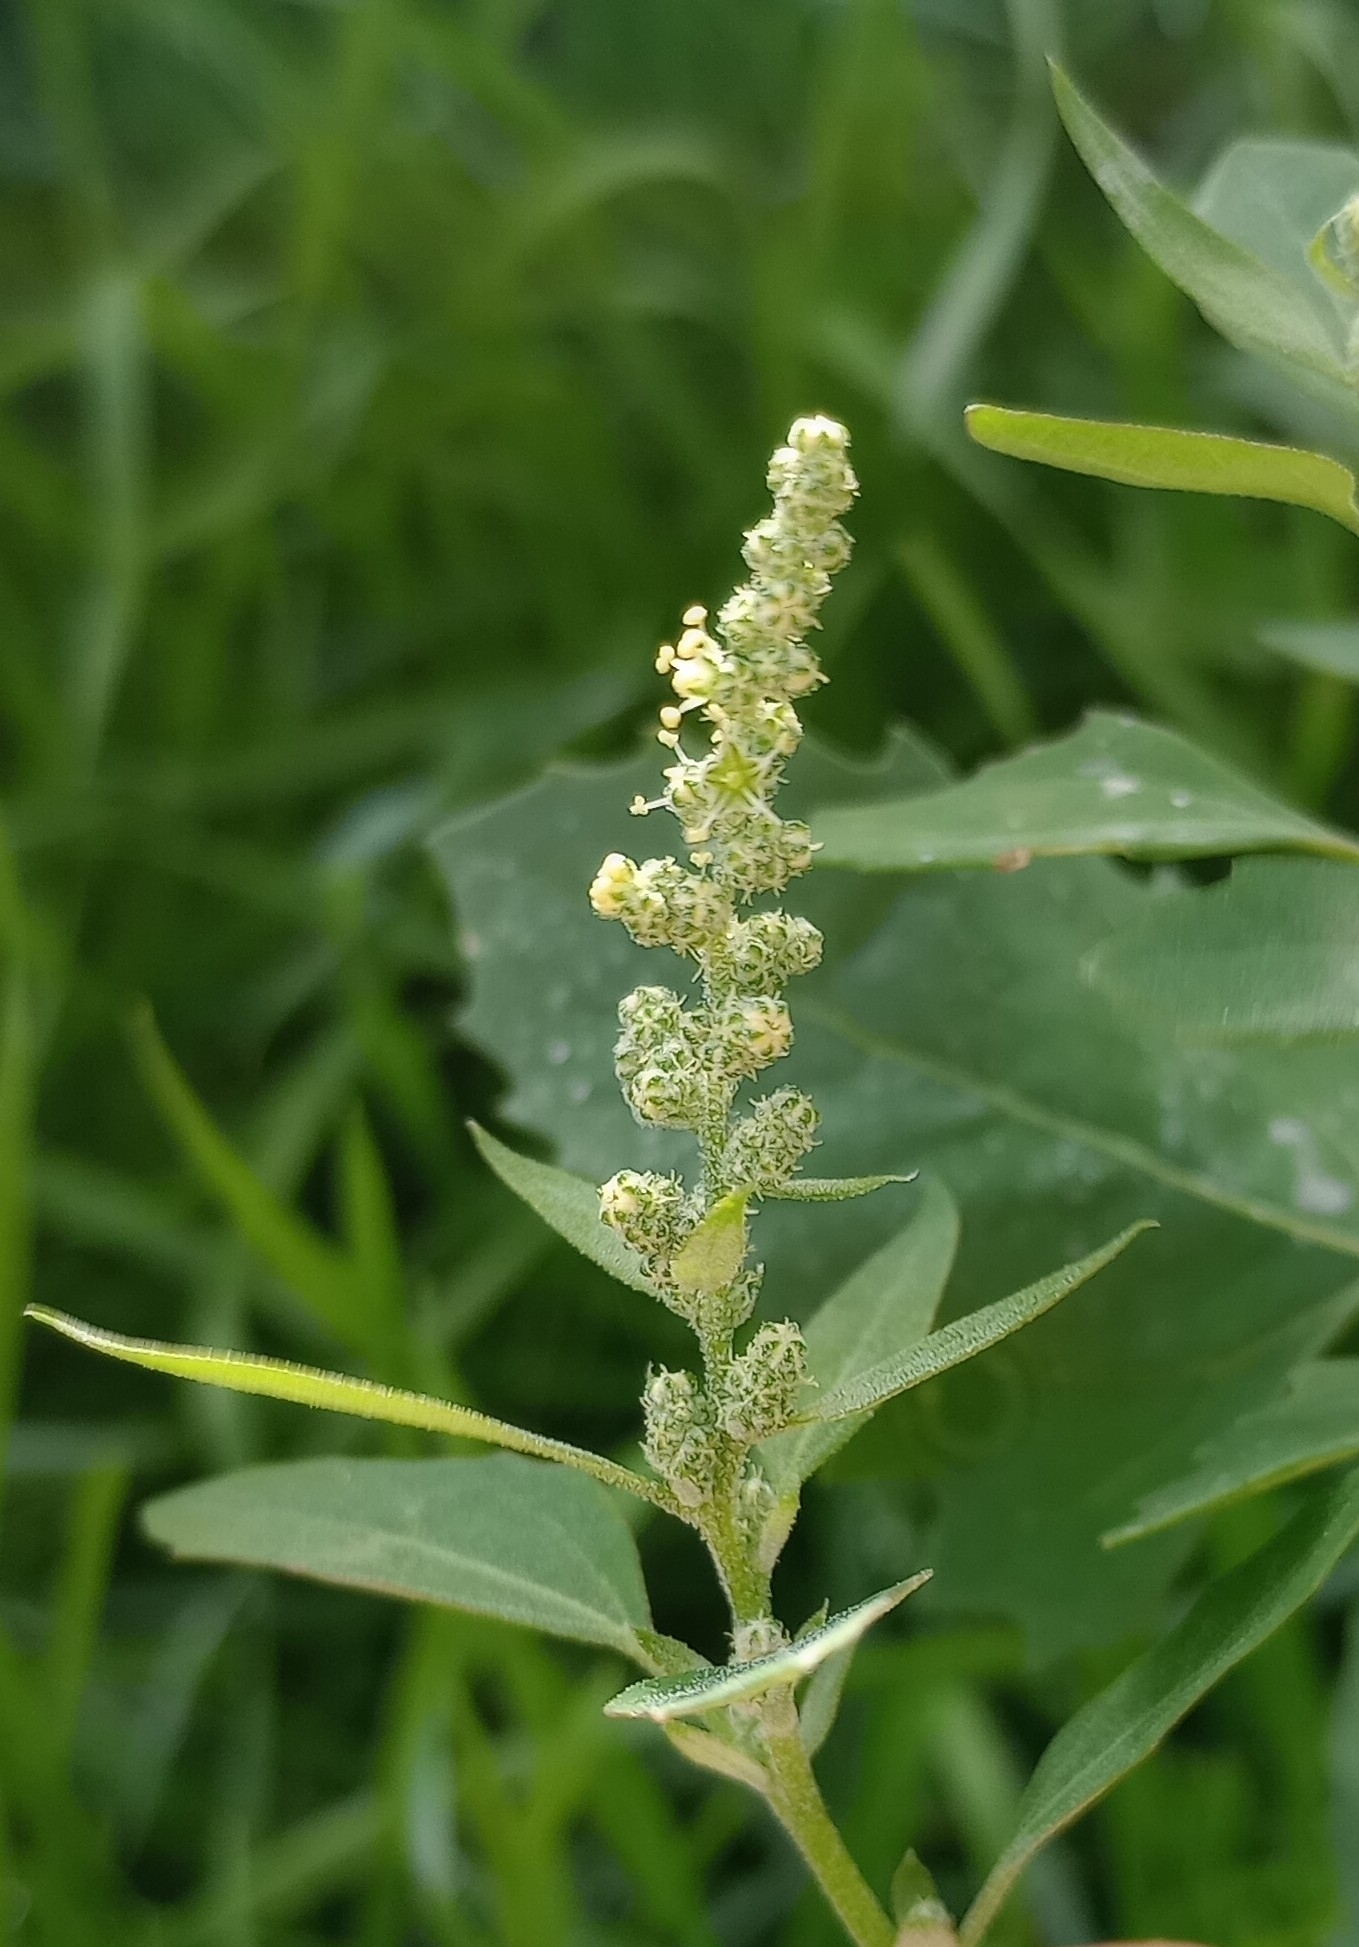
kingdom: Plantae
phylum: Tracheophyta
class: Magnoliopsida
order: Caryophyllales
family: Amaranthaceae
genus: Chenopodium
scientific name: Chenopodium album
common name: Fat-hen
